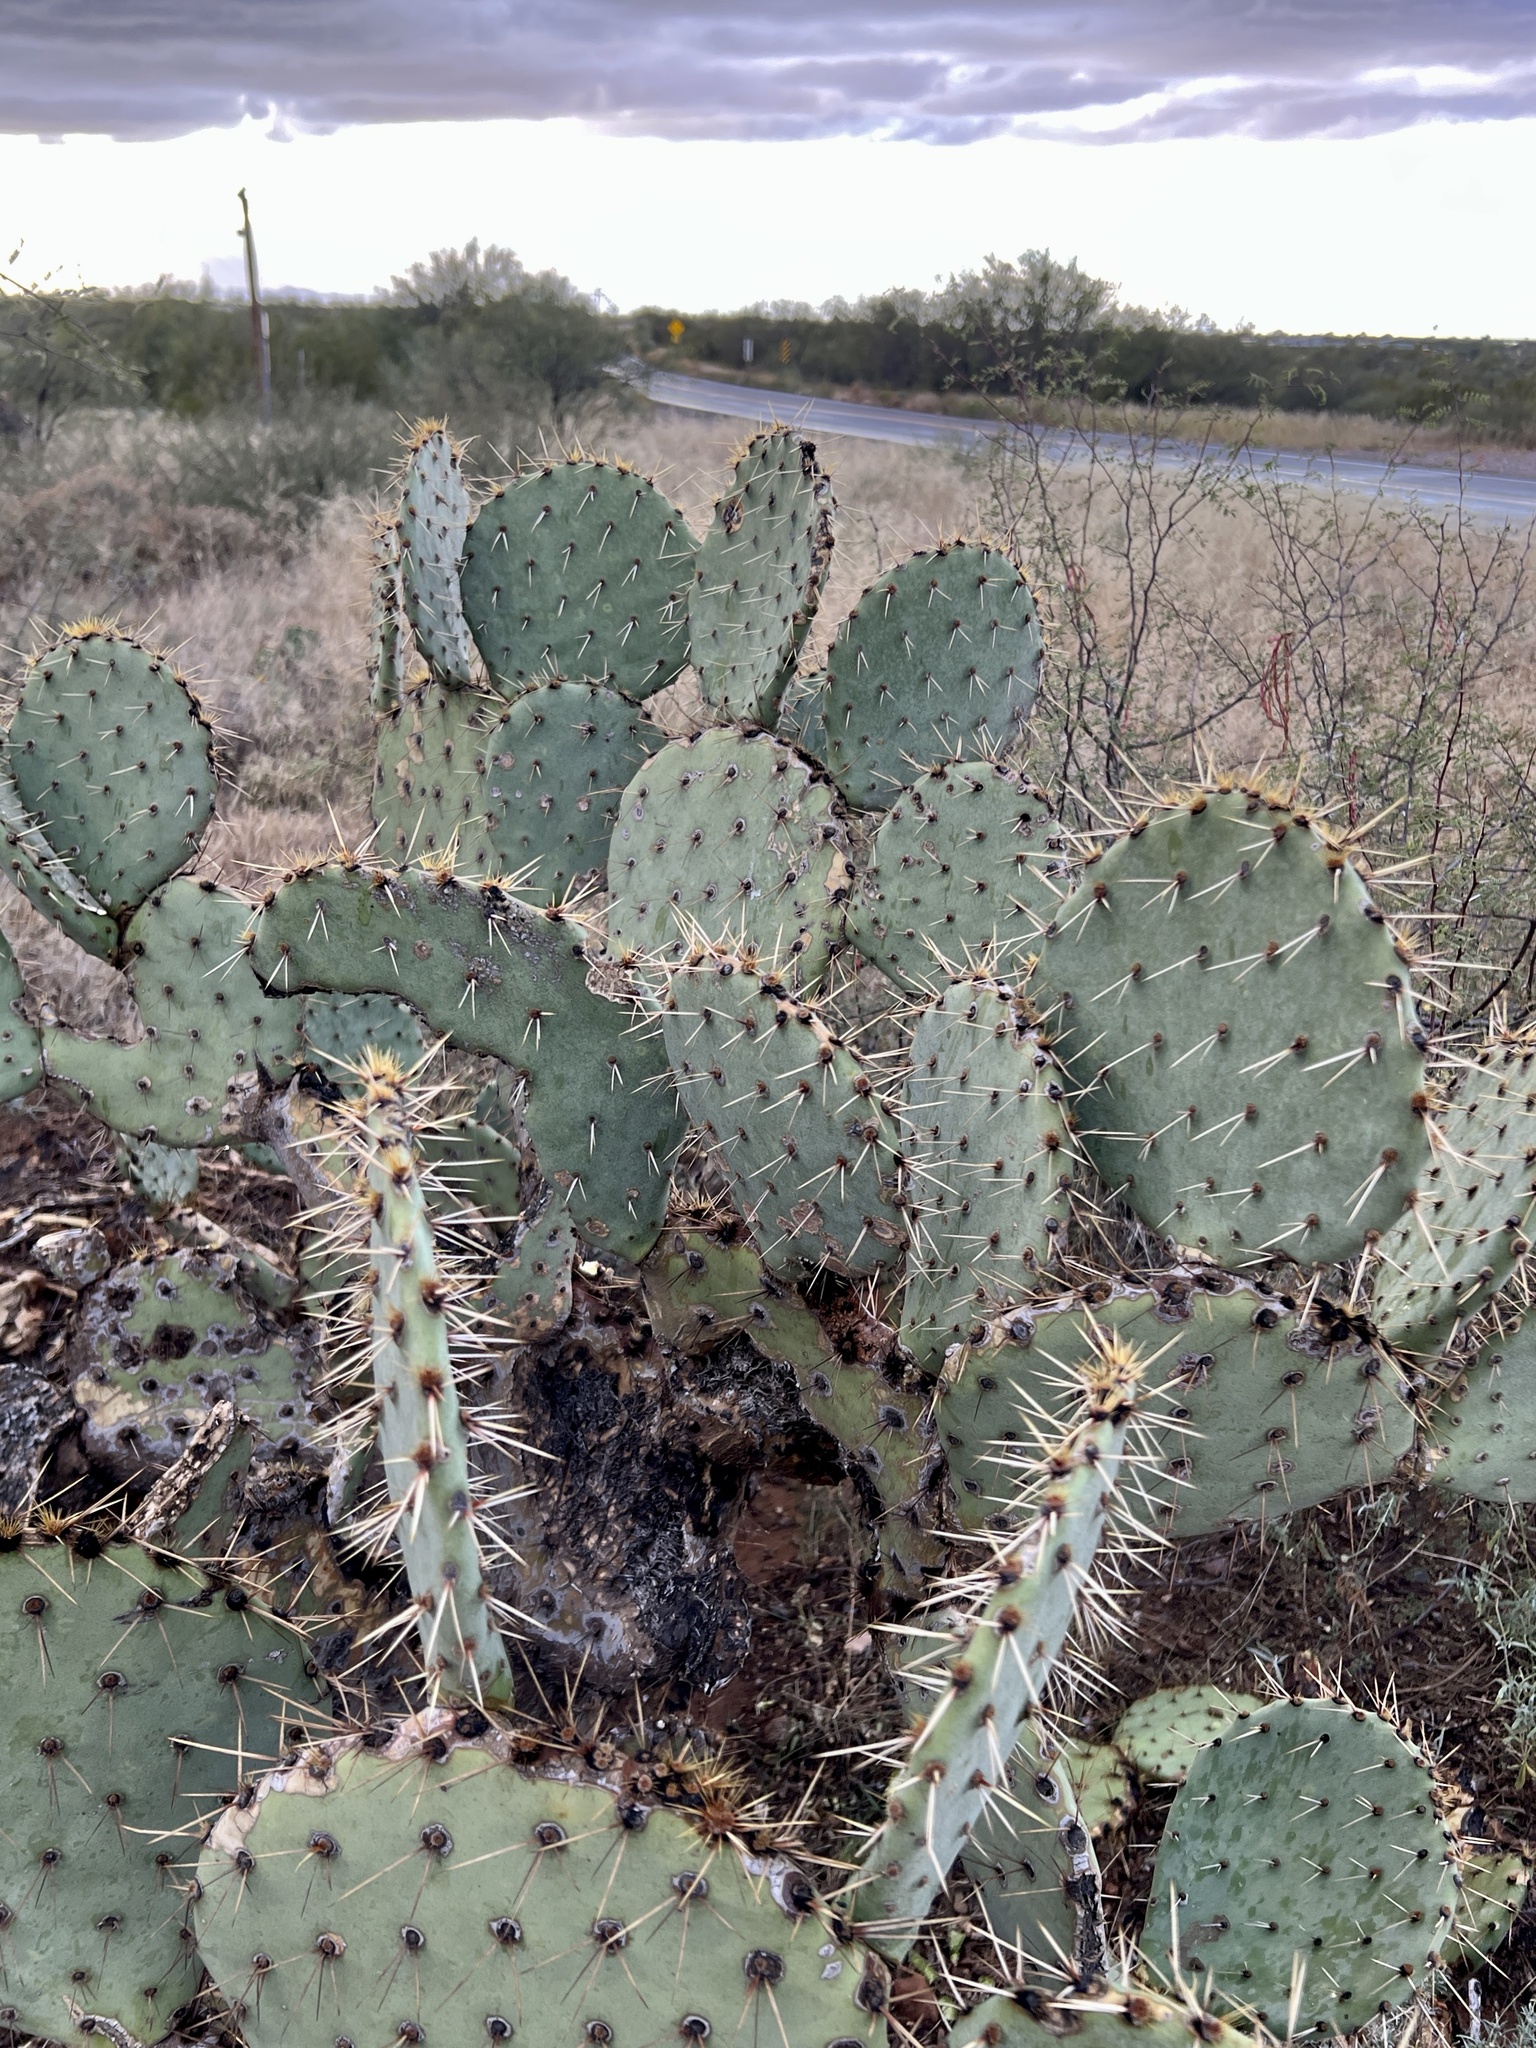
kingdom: Plantae
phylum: Tracheophyta
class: Magnoliopsida
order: Caryophyllales
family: Cactaceae
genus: Opuntia
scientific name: Opuntia engelmannii
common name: Cactus-apple
